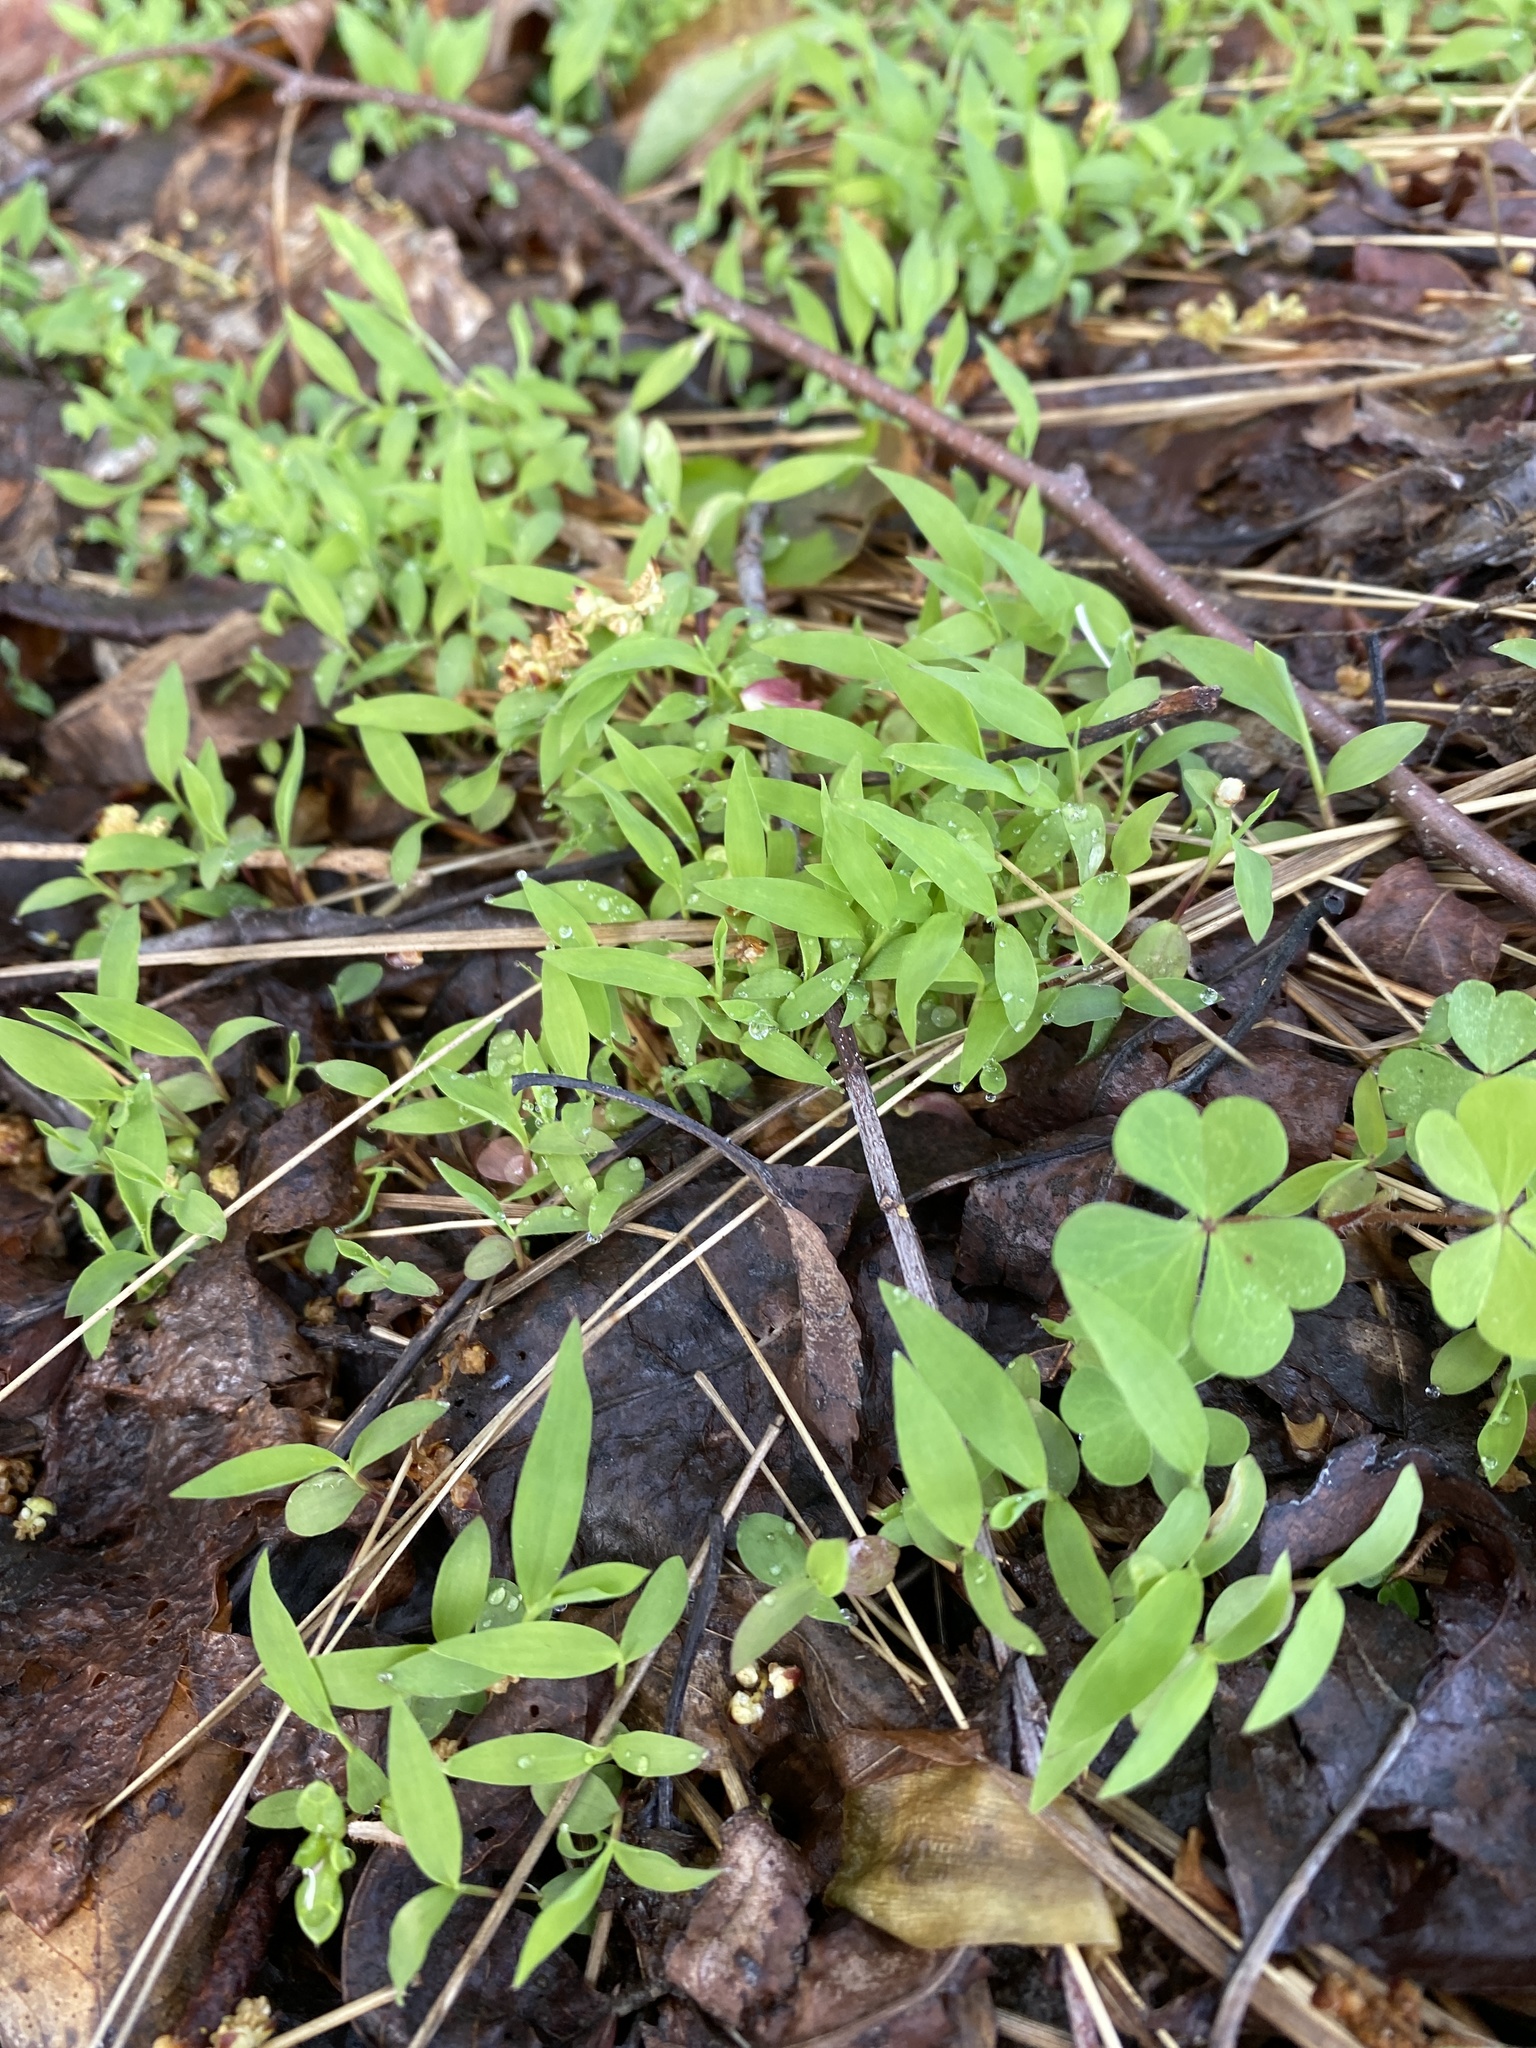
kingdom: Plantae
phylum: Tracheophyta
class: Liliopsida
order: Poales
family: Poaceae
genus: Microstegium
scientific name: Microstegium vimineum
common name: Japanese stiltgrass
